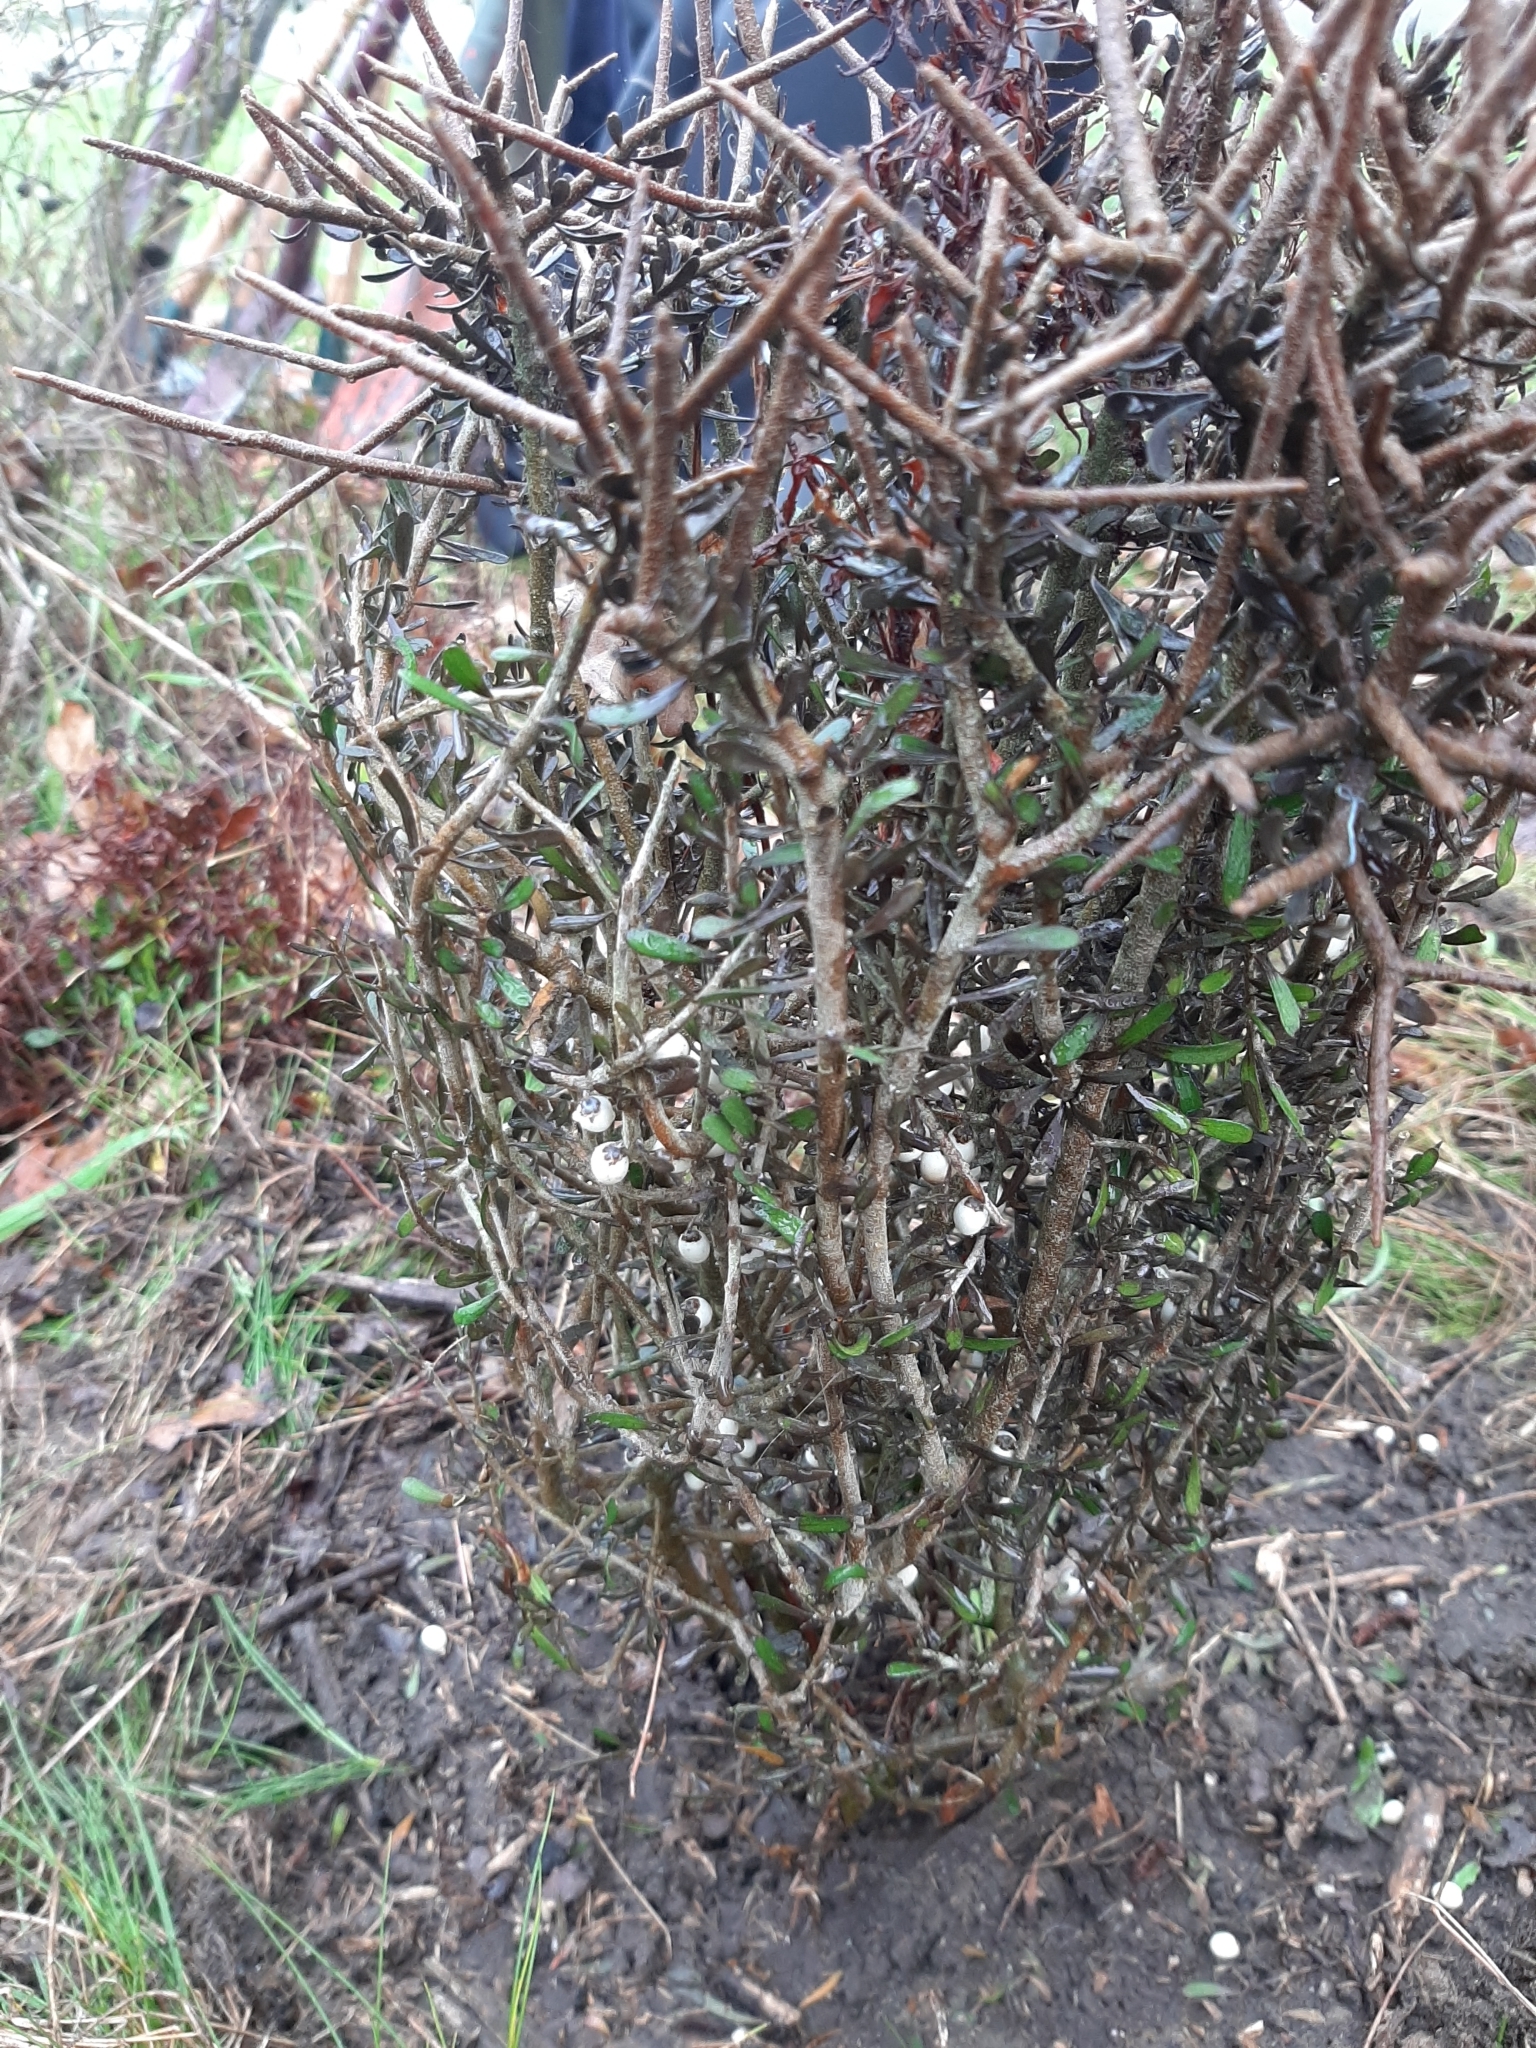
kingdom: Plantae
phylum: Tracheophyta
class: Magnoliopsida
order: Malpighiales
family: Violaceae
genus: Melicytus
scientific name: Melicytus alpinus
